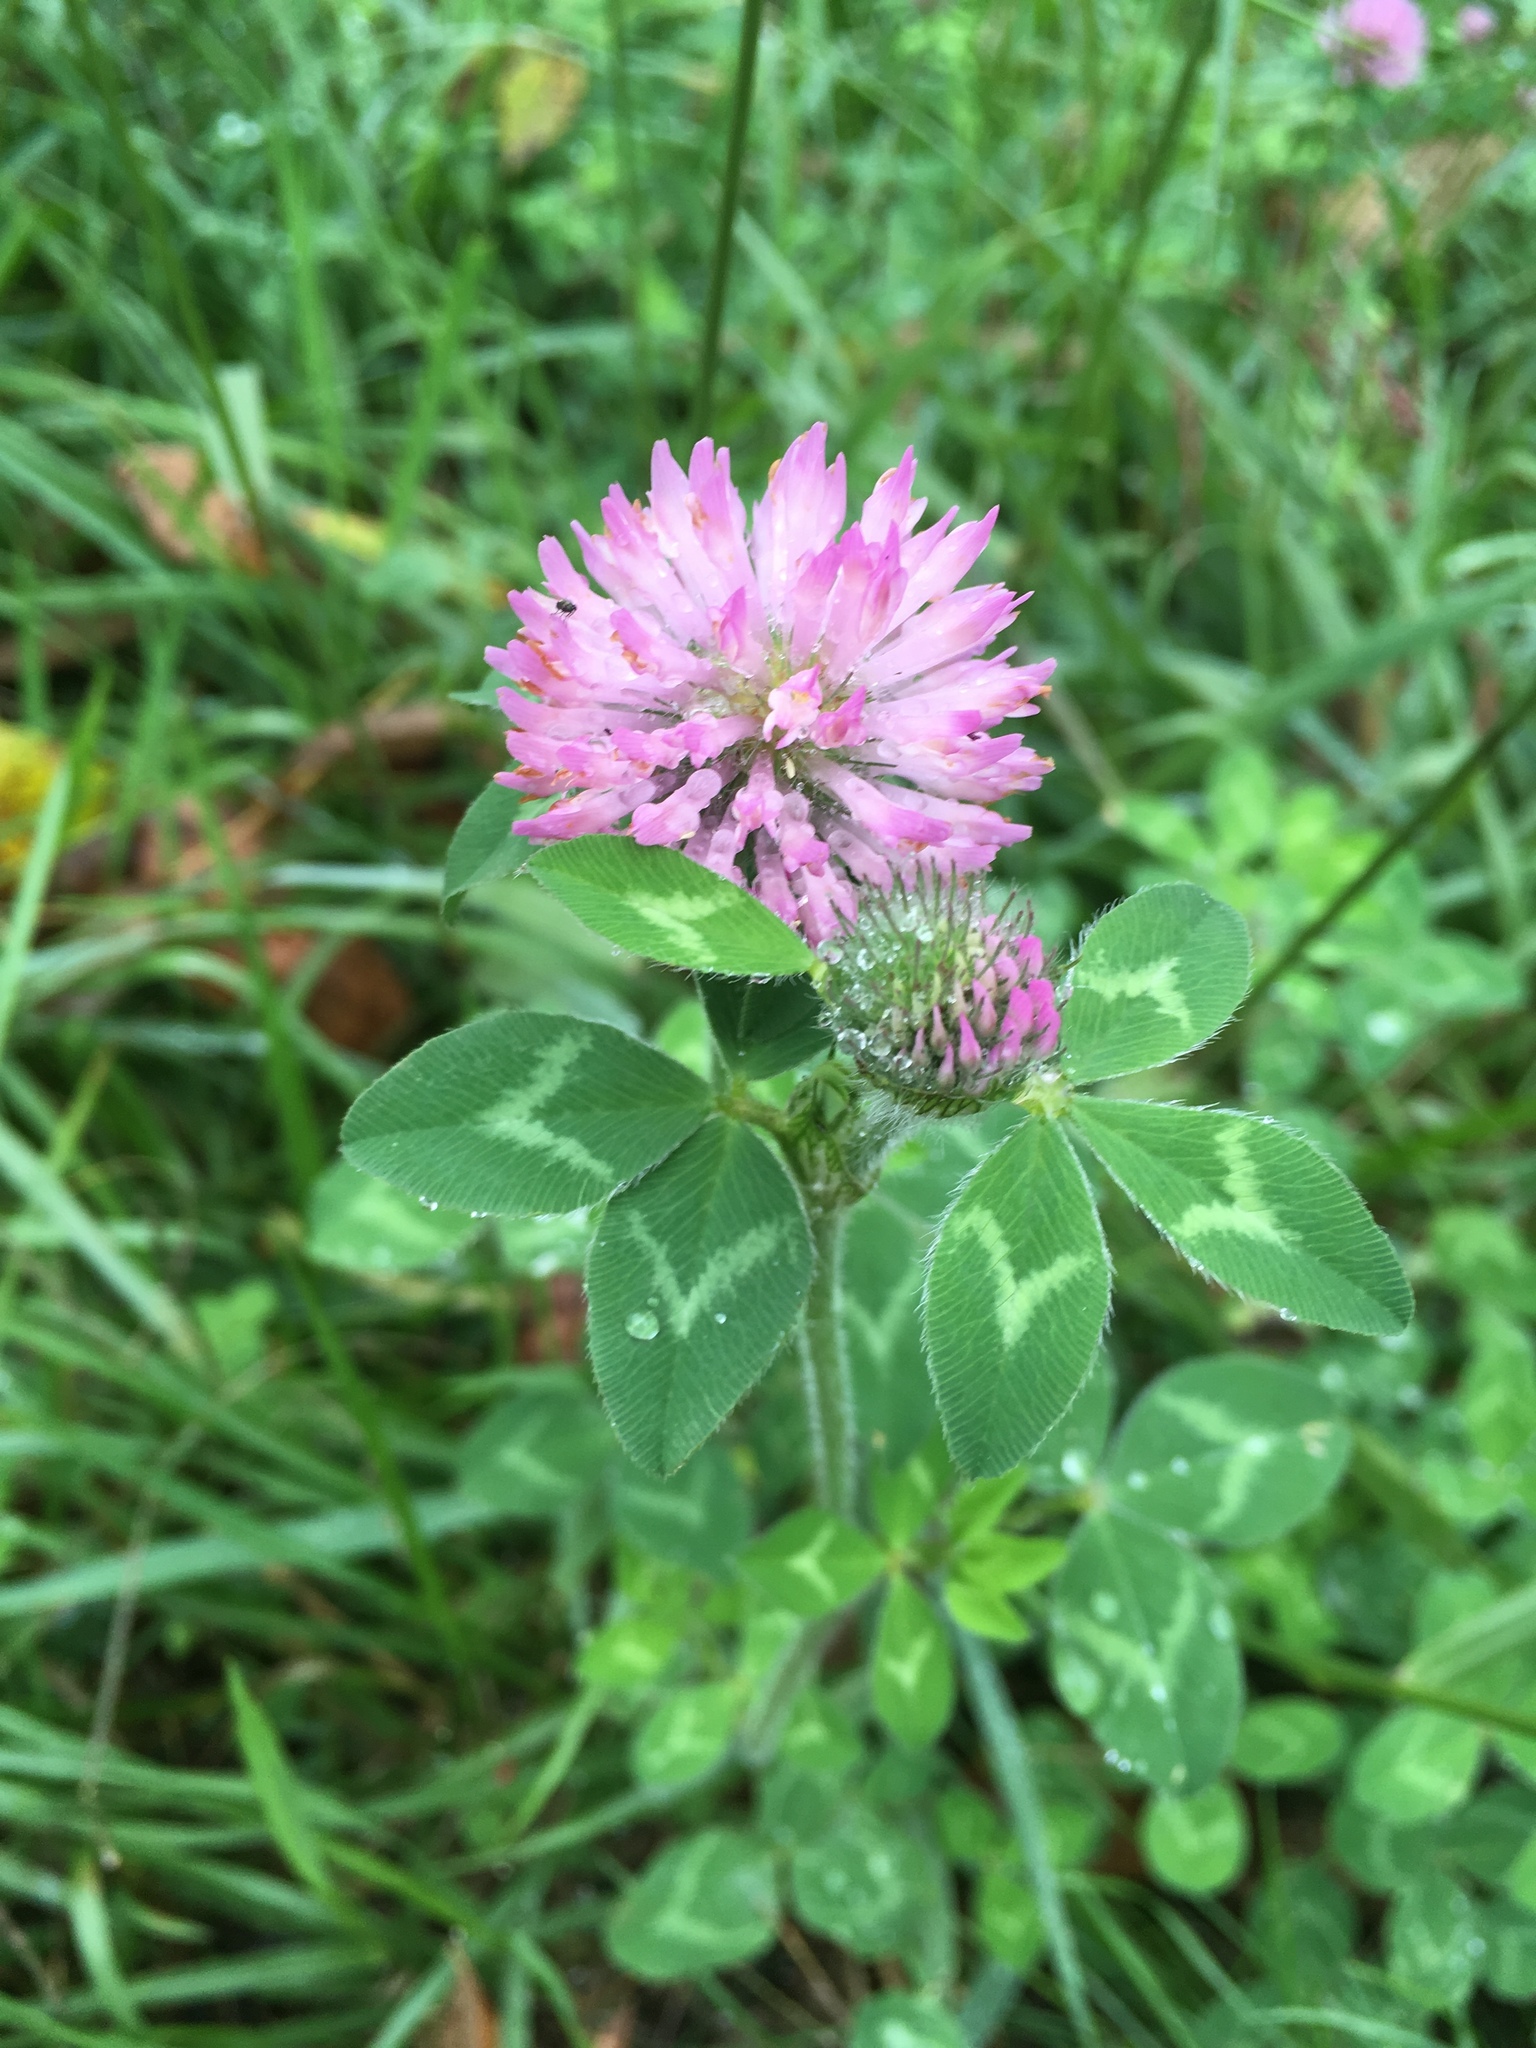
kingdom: Plantae
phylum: Tracheophyta
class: Magnoliopsida
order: Fabales
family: Fabaceae
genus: Trifolium
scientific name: Trifolium pratense
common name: Red clover
